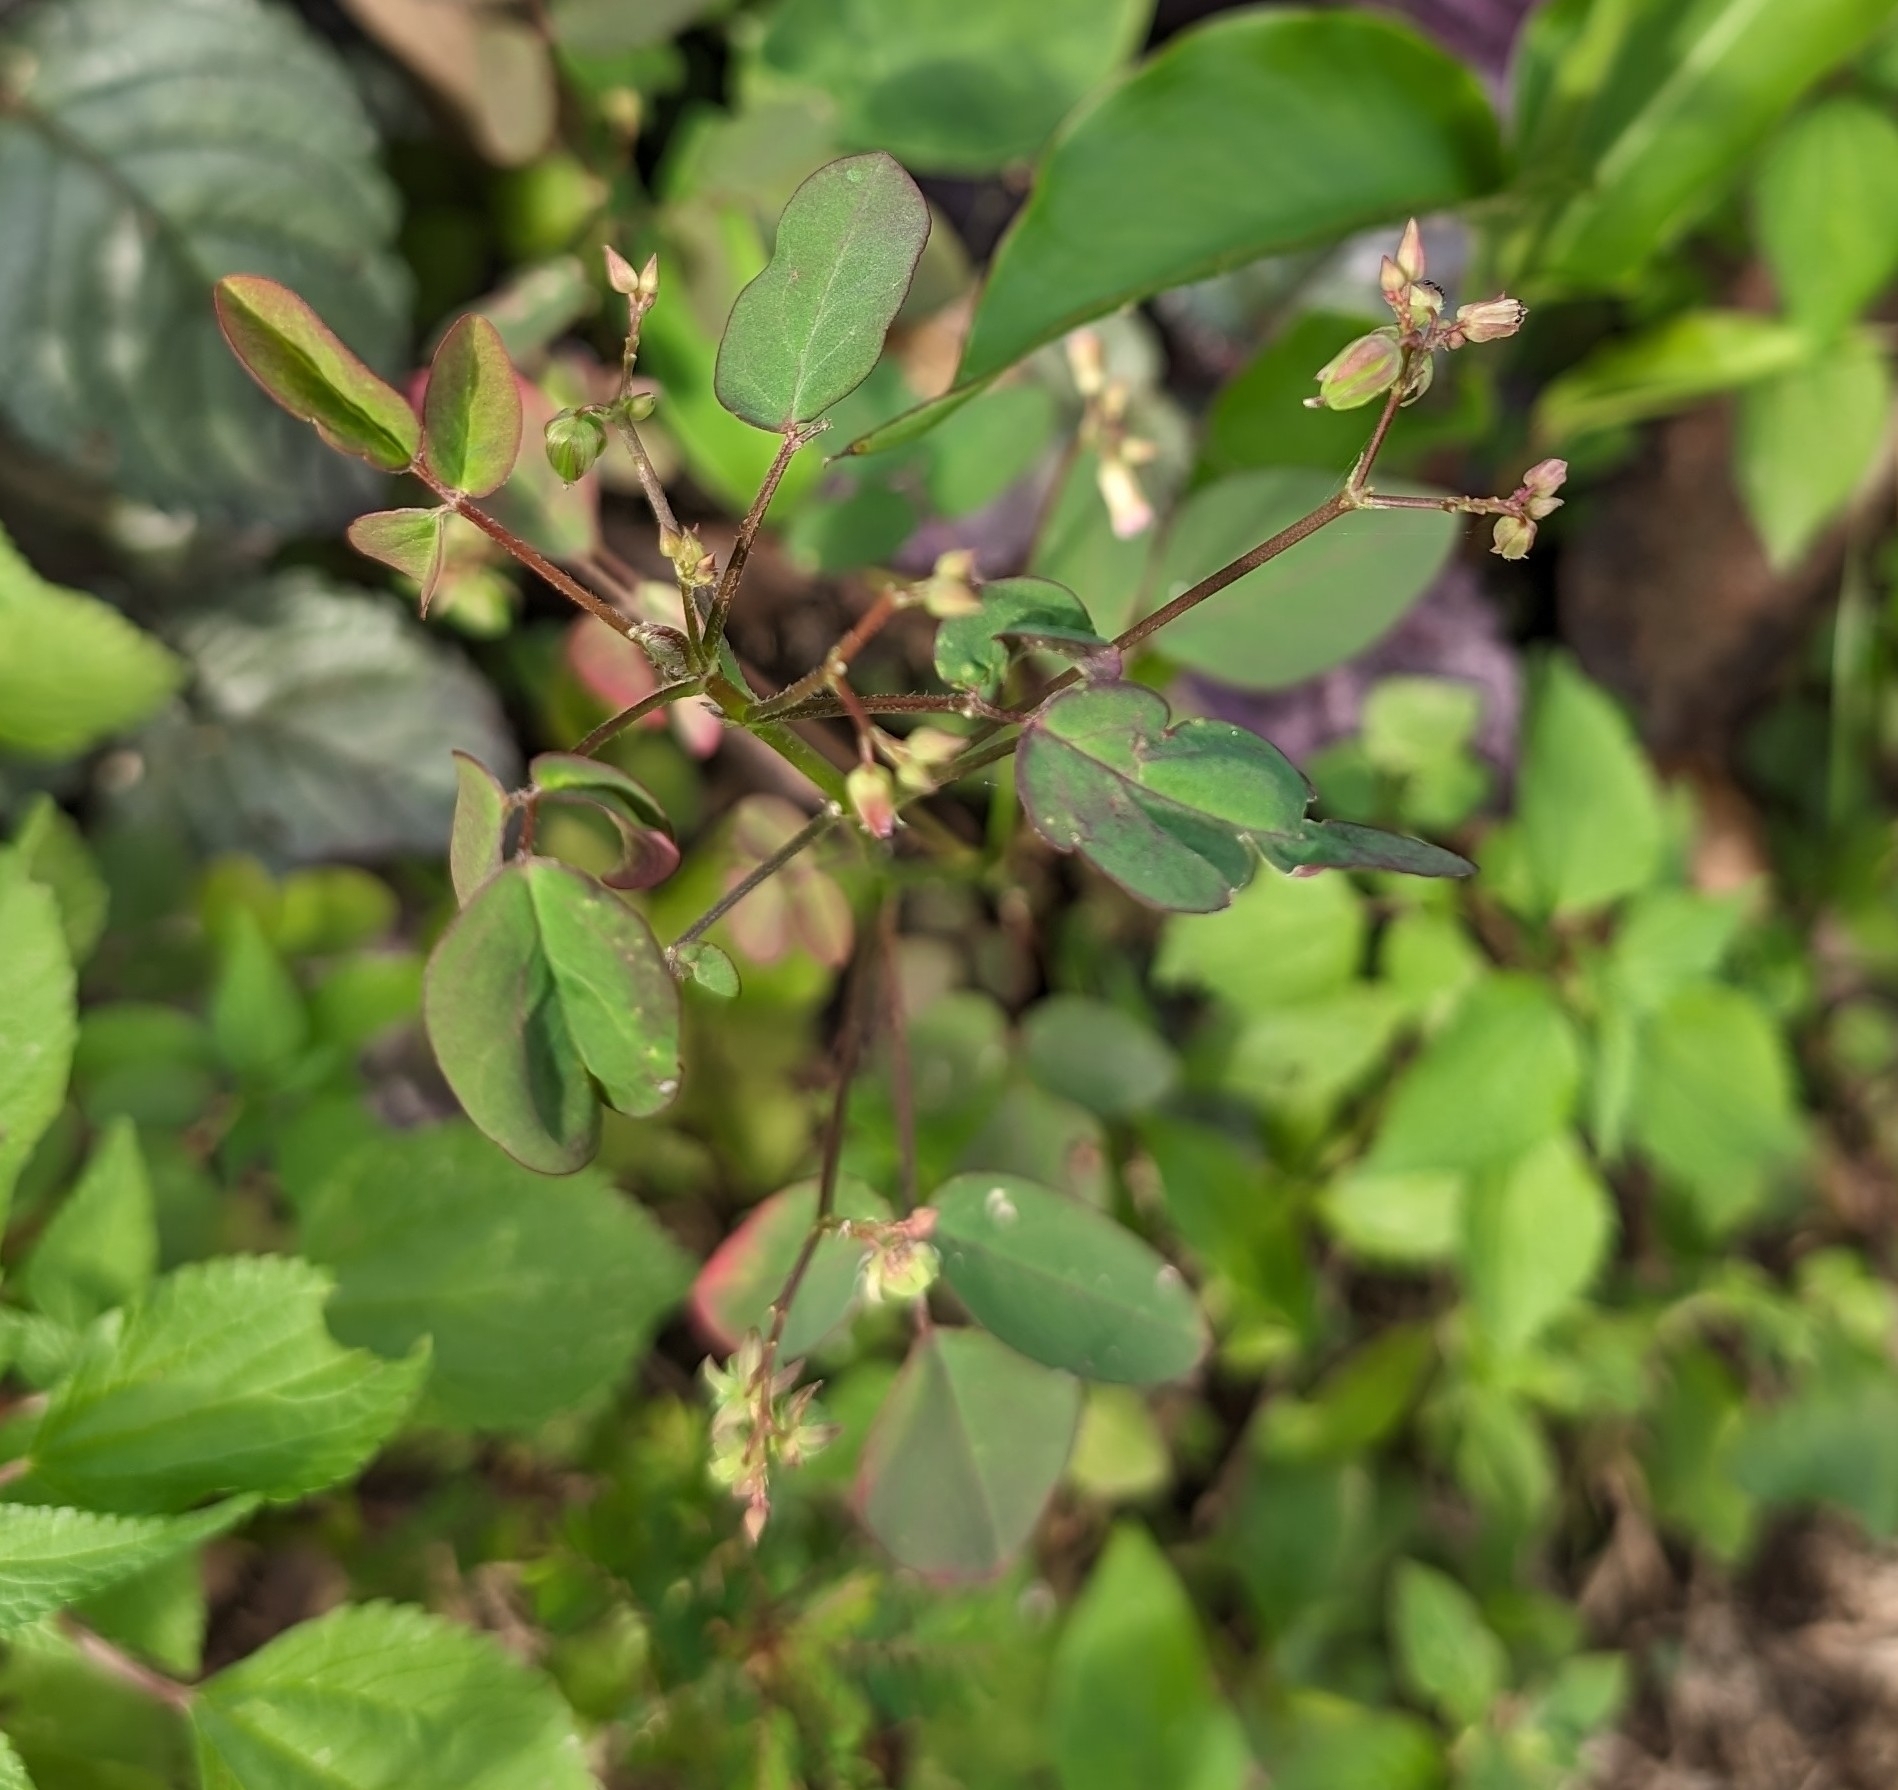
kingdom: Plantae
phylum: Tracheophyta
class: Magnoliopsida
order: Oxalidales
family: Oxalidaceae
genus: Oxalis
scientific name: Oxalis barrelieri
